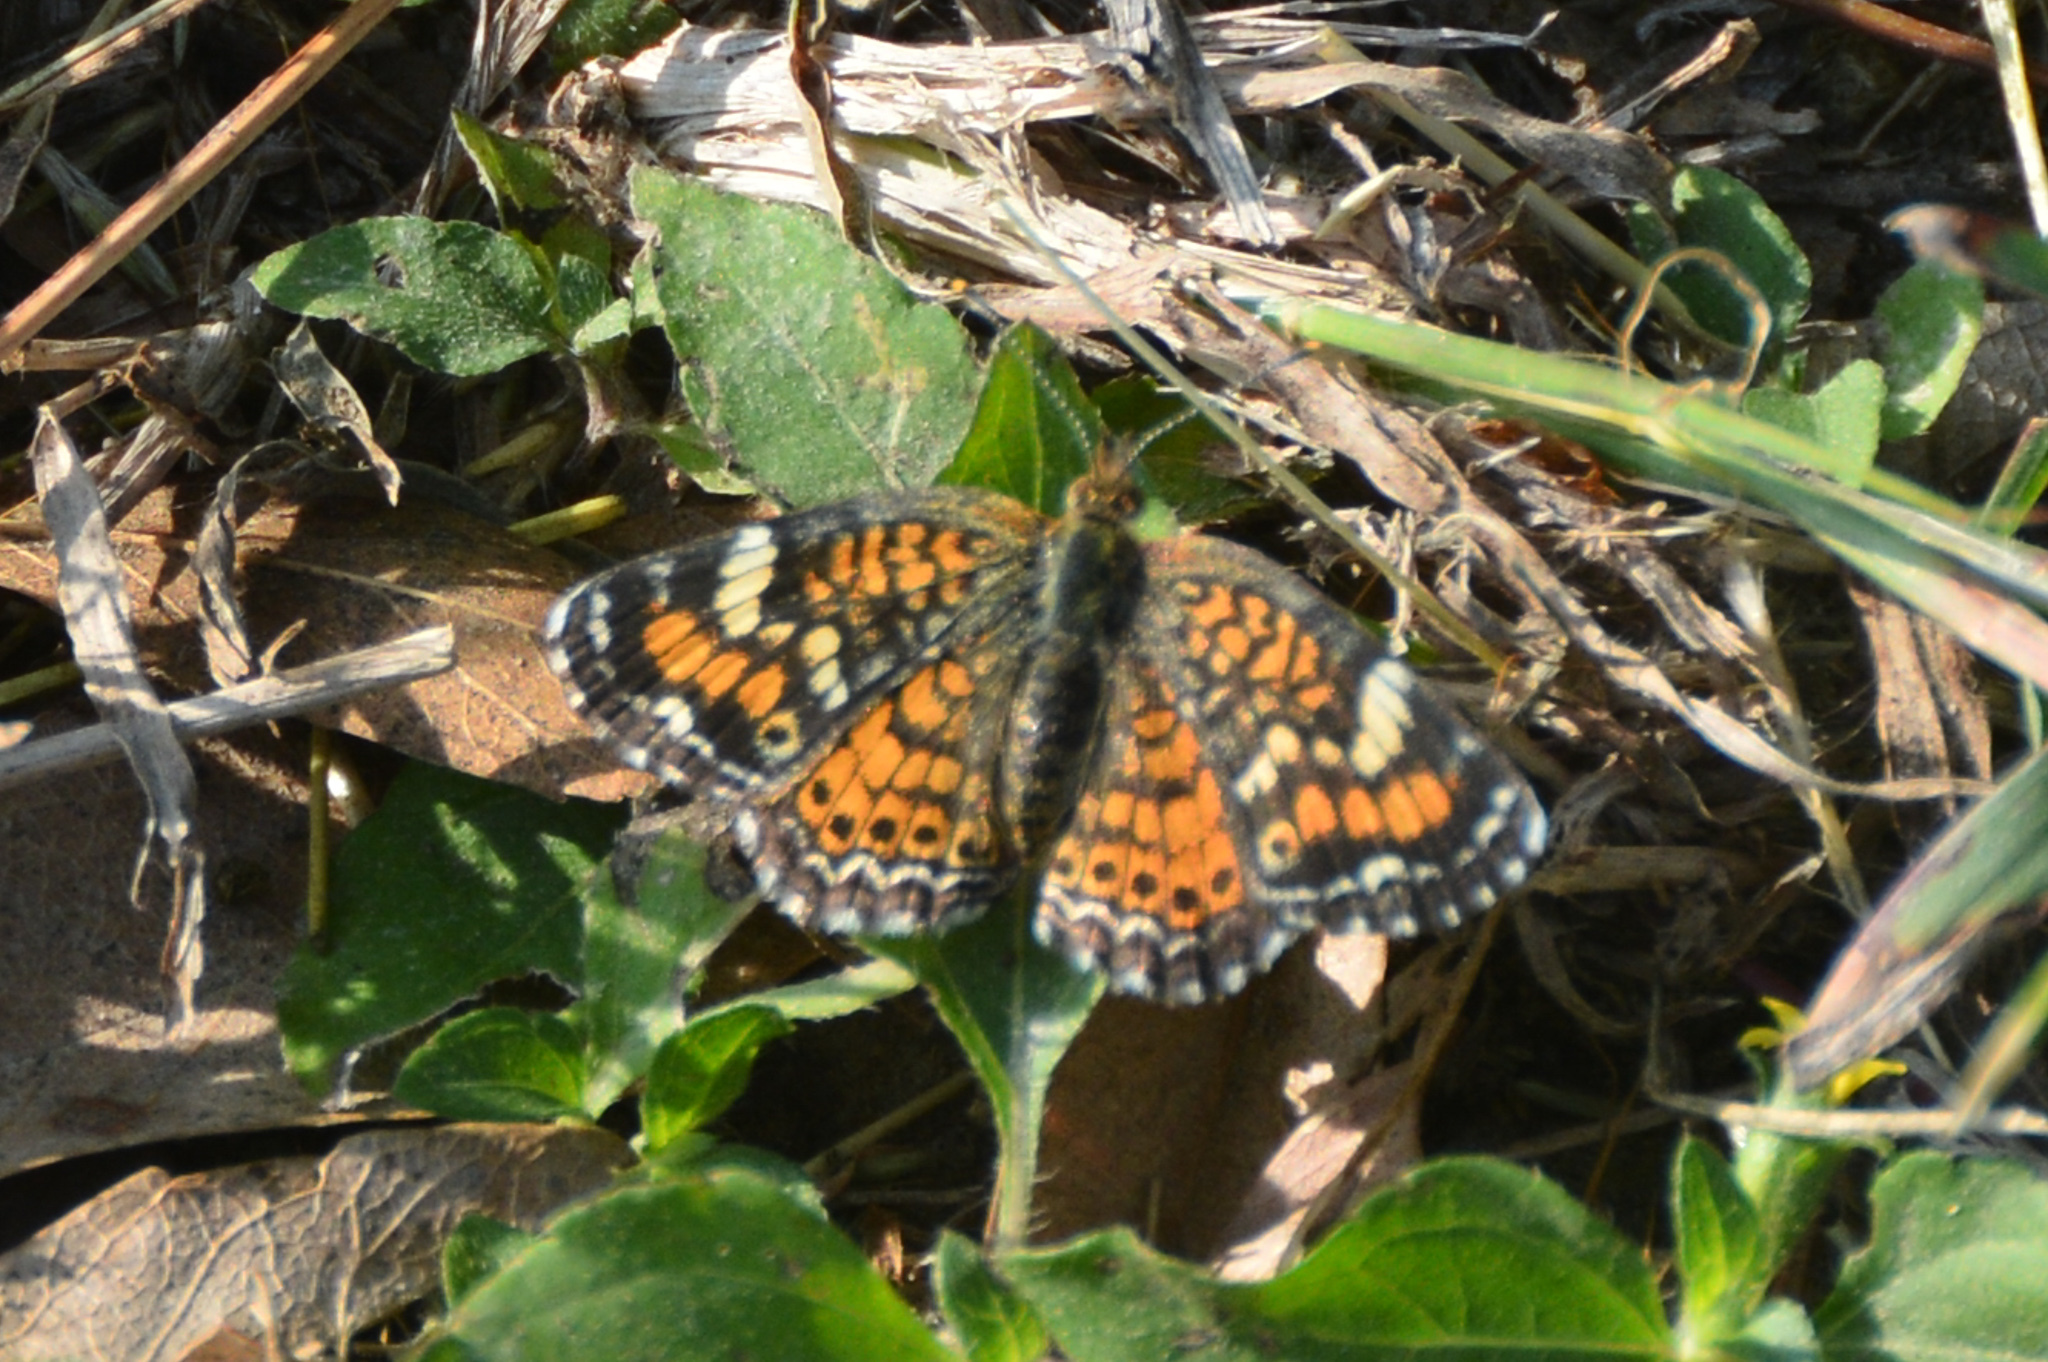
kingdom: Animalia
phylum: Arthropoda
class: Insecta
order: Lepidoptera
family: Nymphalidae
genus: Phyciodes
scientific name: Phyciodes phaon
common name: Phaon crescent
